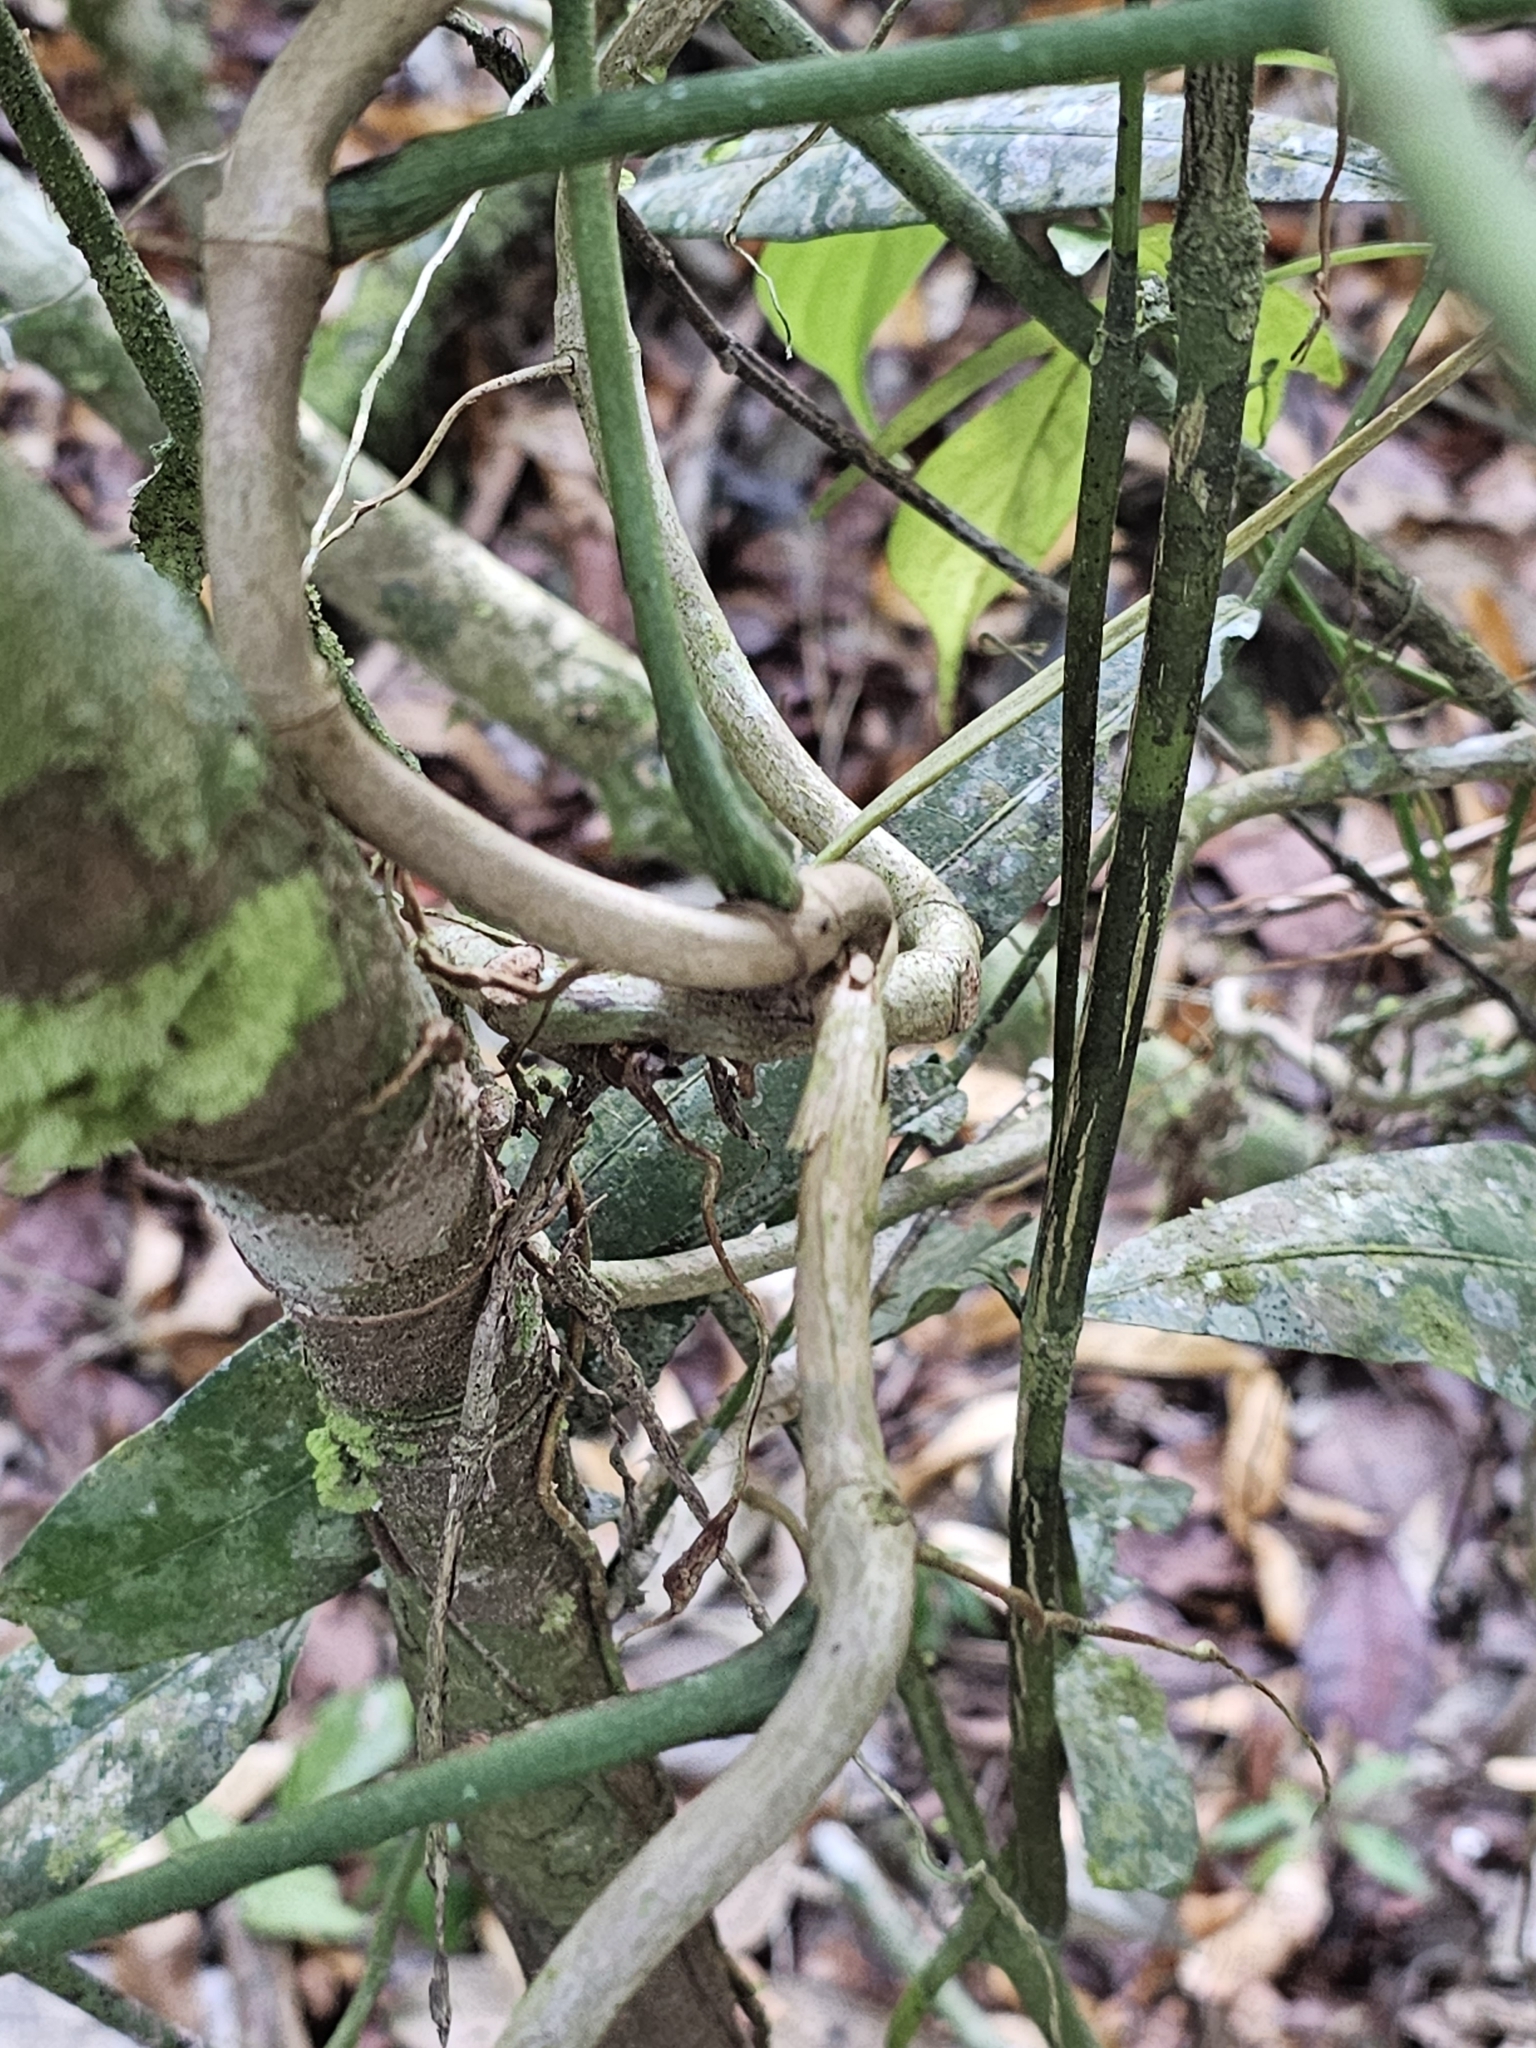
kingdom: Plantae
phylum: Tracheophyta
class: Liliopsida
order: Alismatales
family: Araceae
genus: Philodendron
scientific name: Philodendron pedatum
